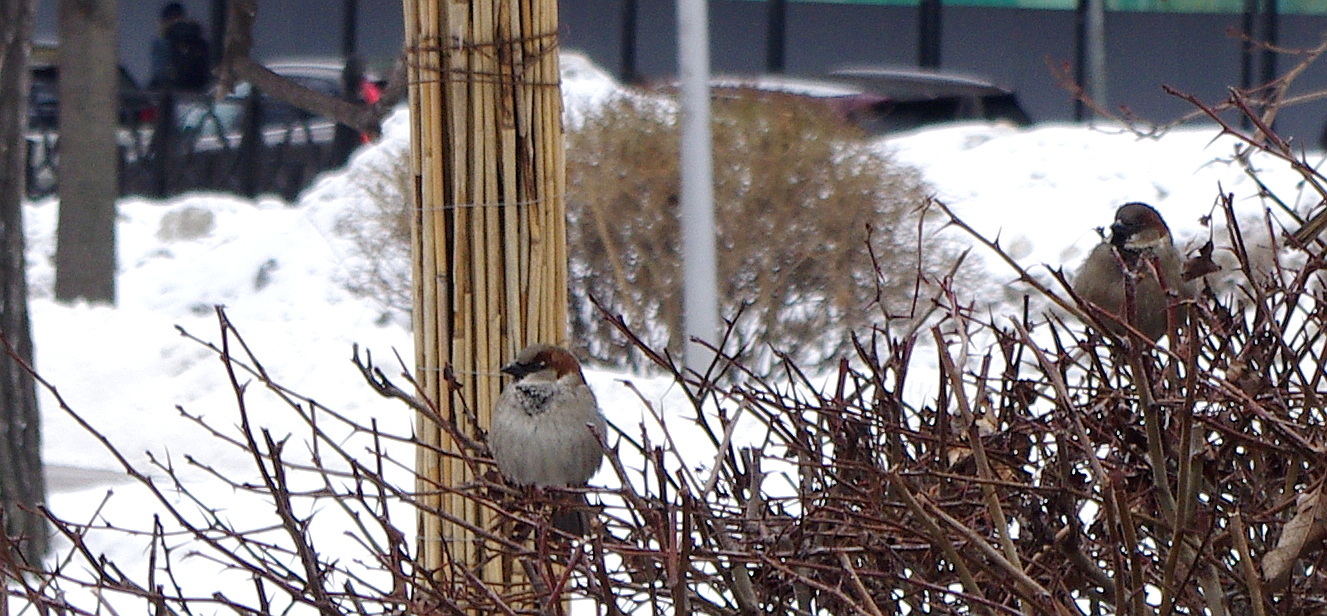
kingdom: Animalia
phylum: Chordata
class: Aves
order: Passeriformes
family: Passeridae
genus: Passer
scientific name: Passer domesticus
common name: House sparrow
